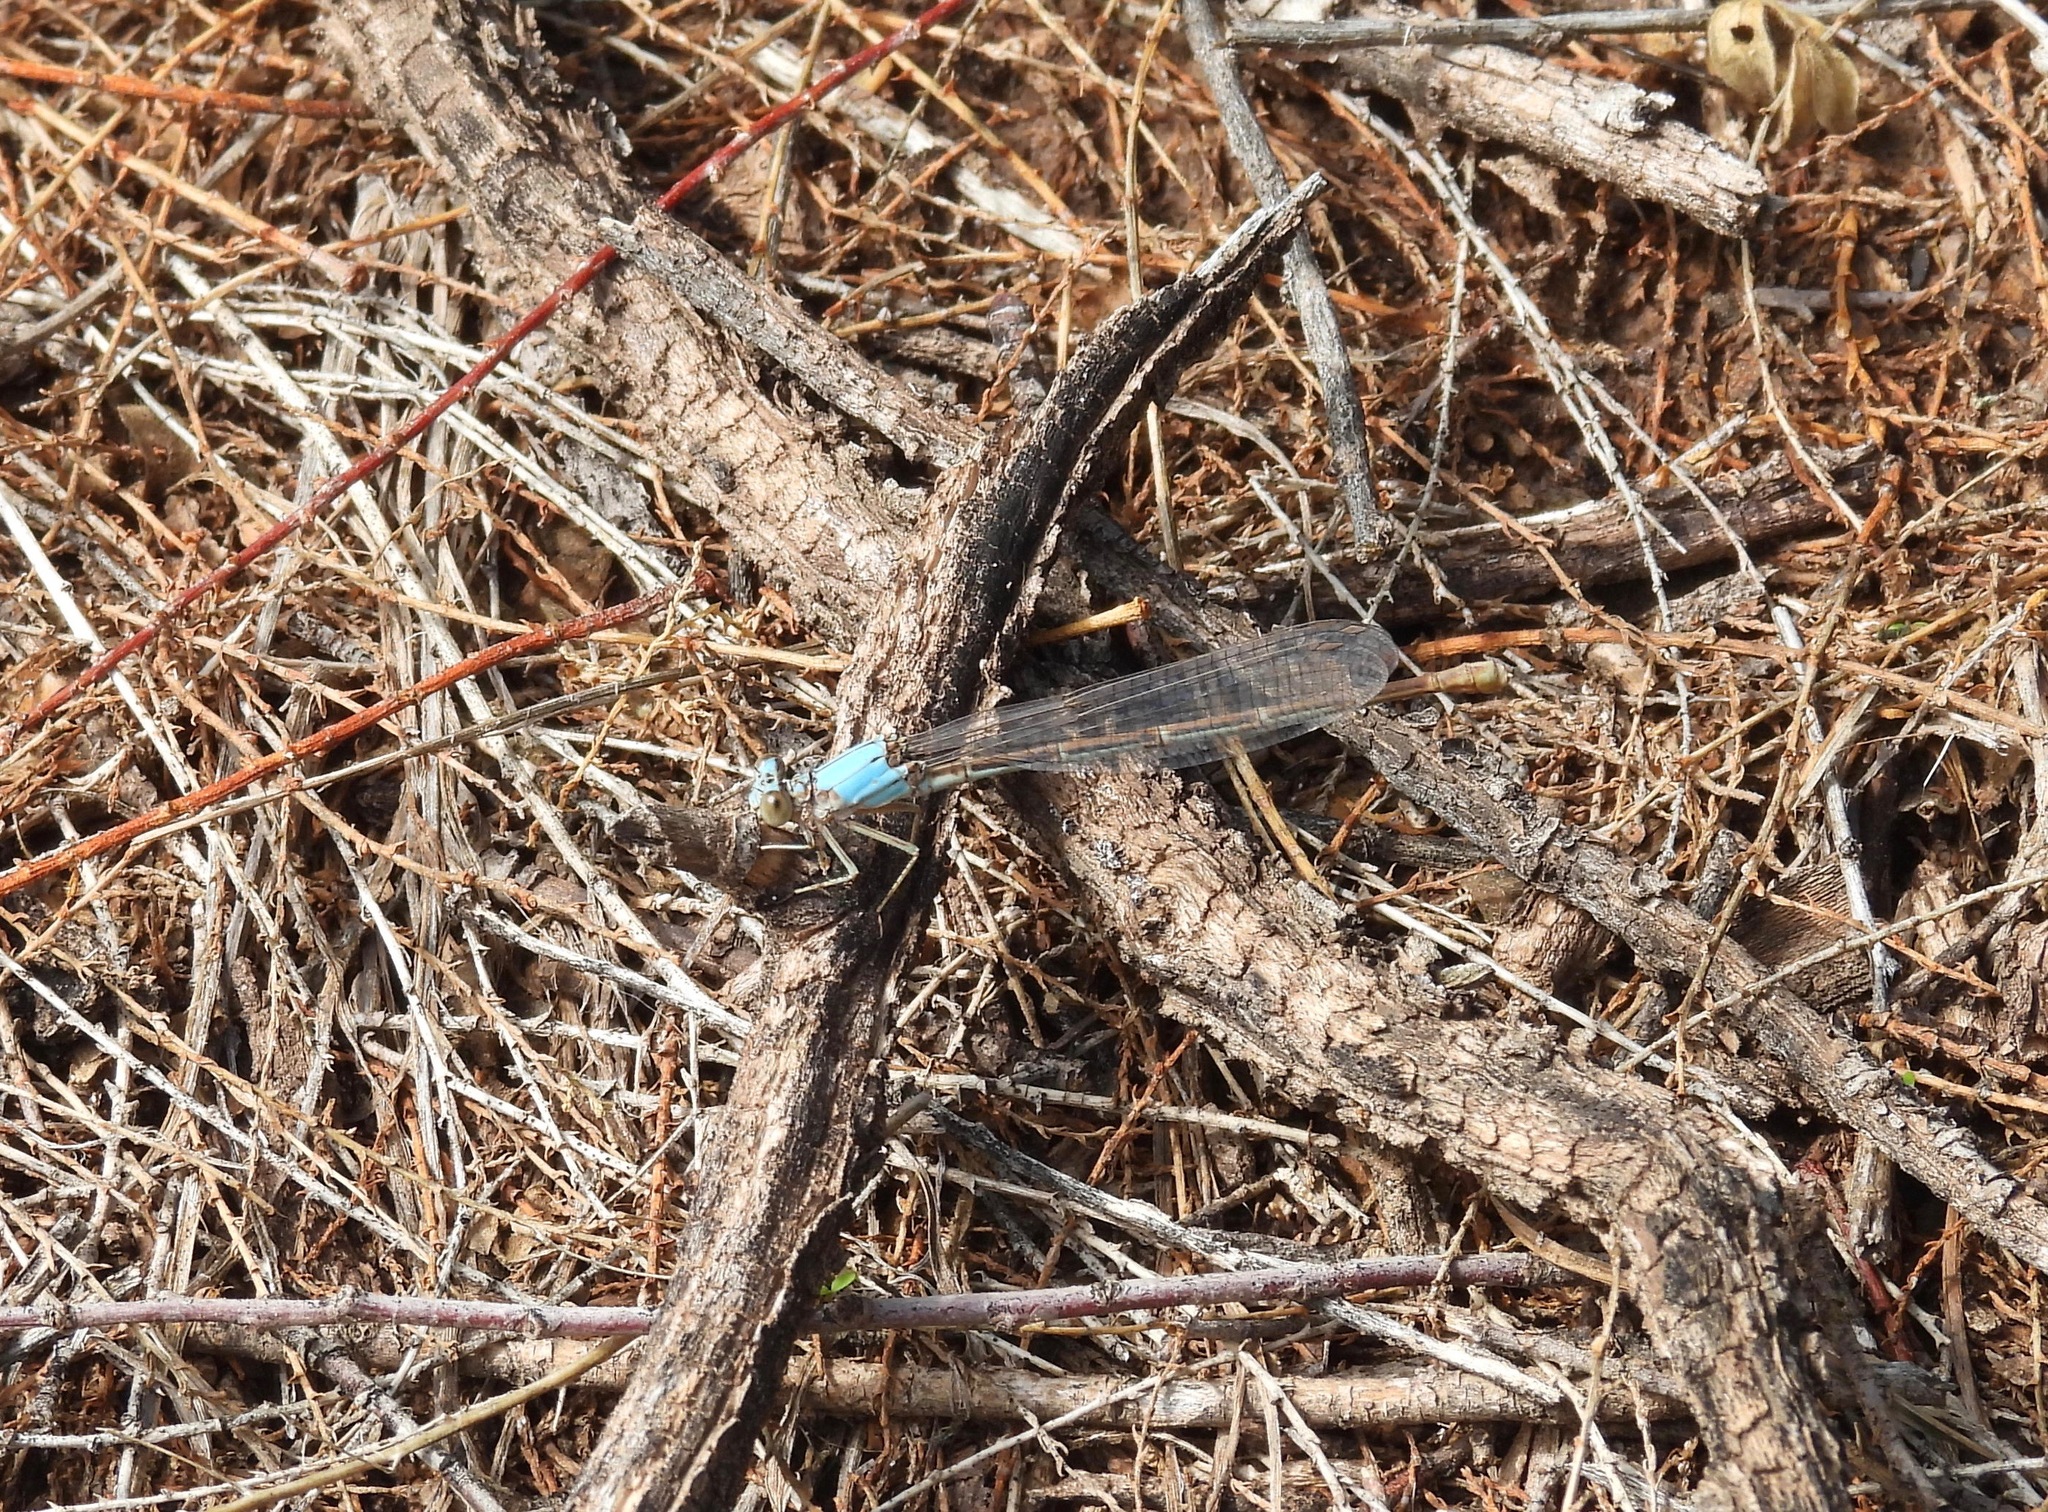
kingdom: Animalia
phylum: Arthropoda
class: Insecta
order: Odonata
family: Coenagrionidae
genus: Argia
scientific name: Argia moesta
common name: Powdered dancer
